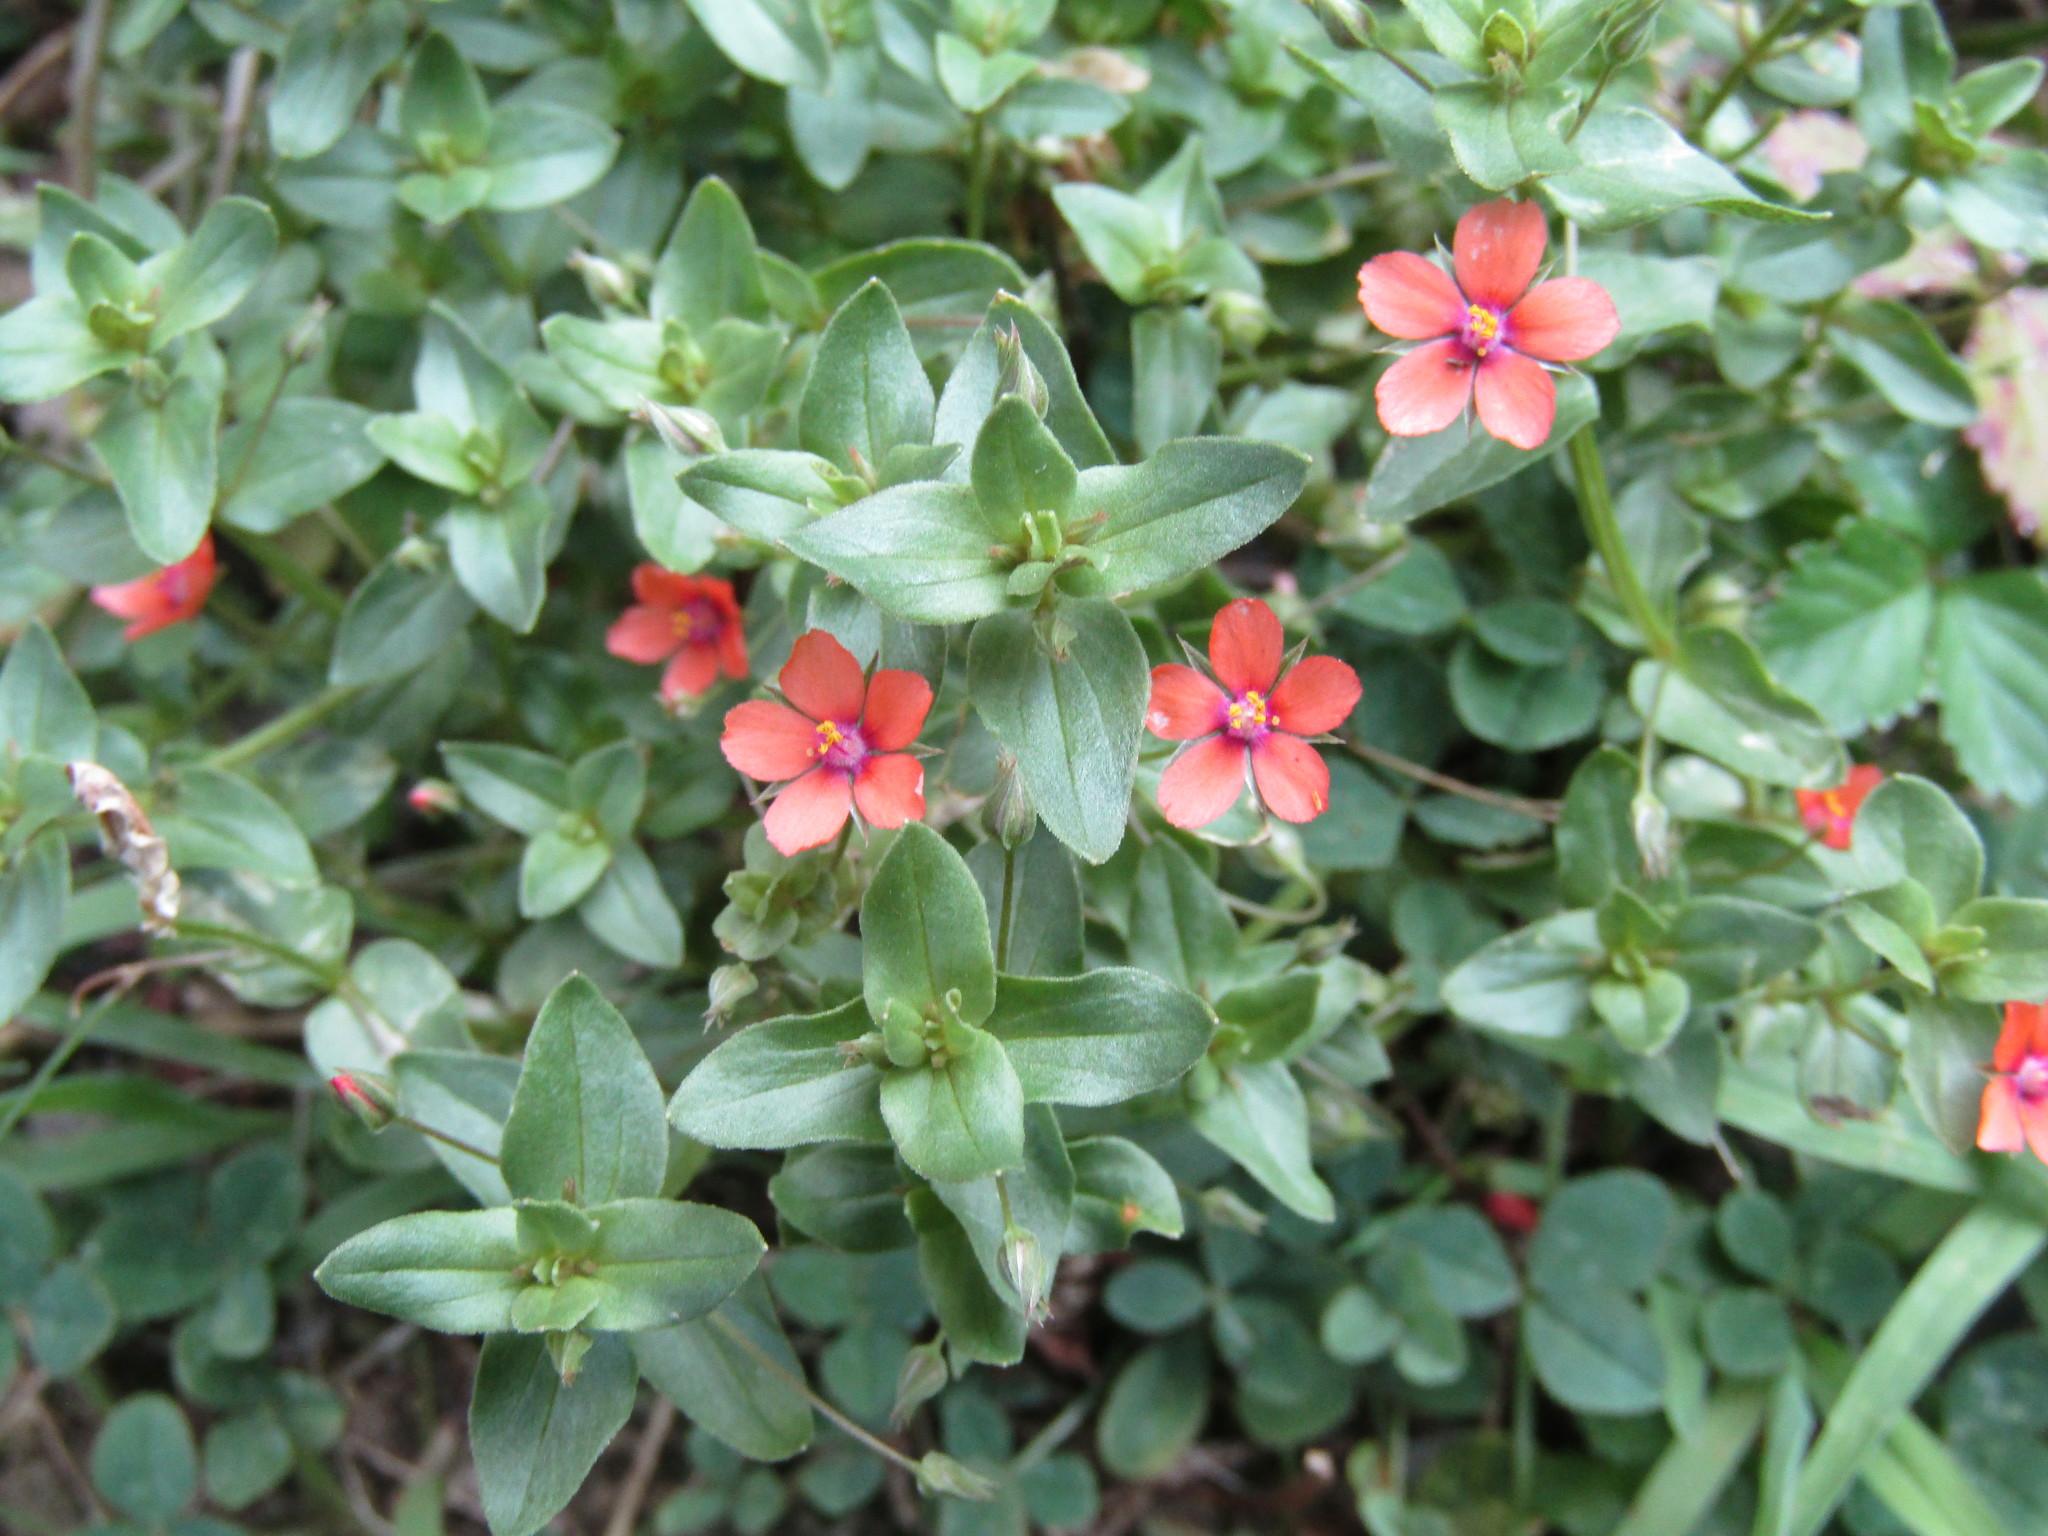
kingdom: Plantae
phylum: Tracheophyta
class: Magnoliopsida
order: Ericales
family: Primulaceae
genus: Lysimachia
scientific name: Lysimachia arvensis
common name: Scarlet pimpernel
